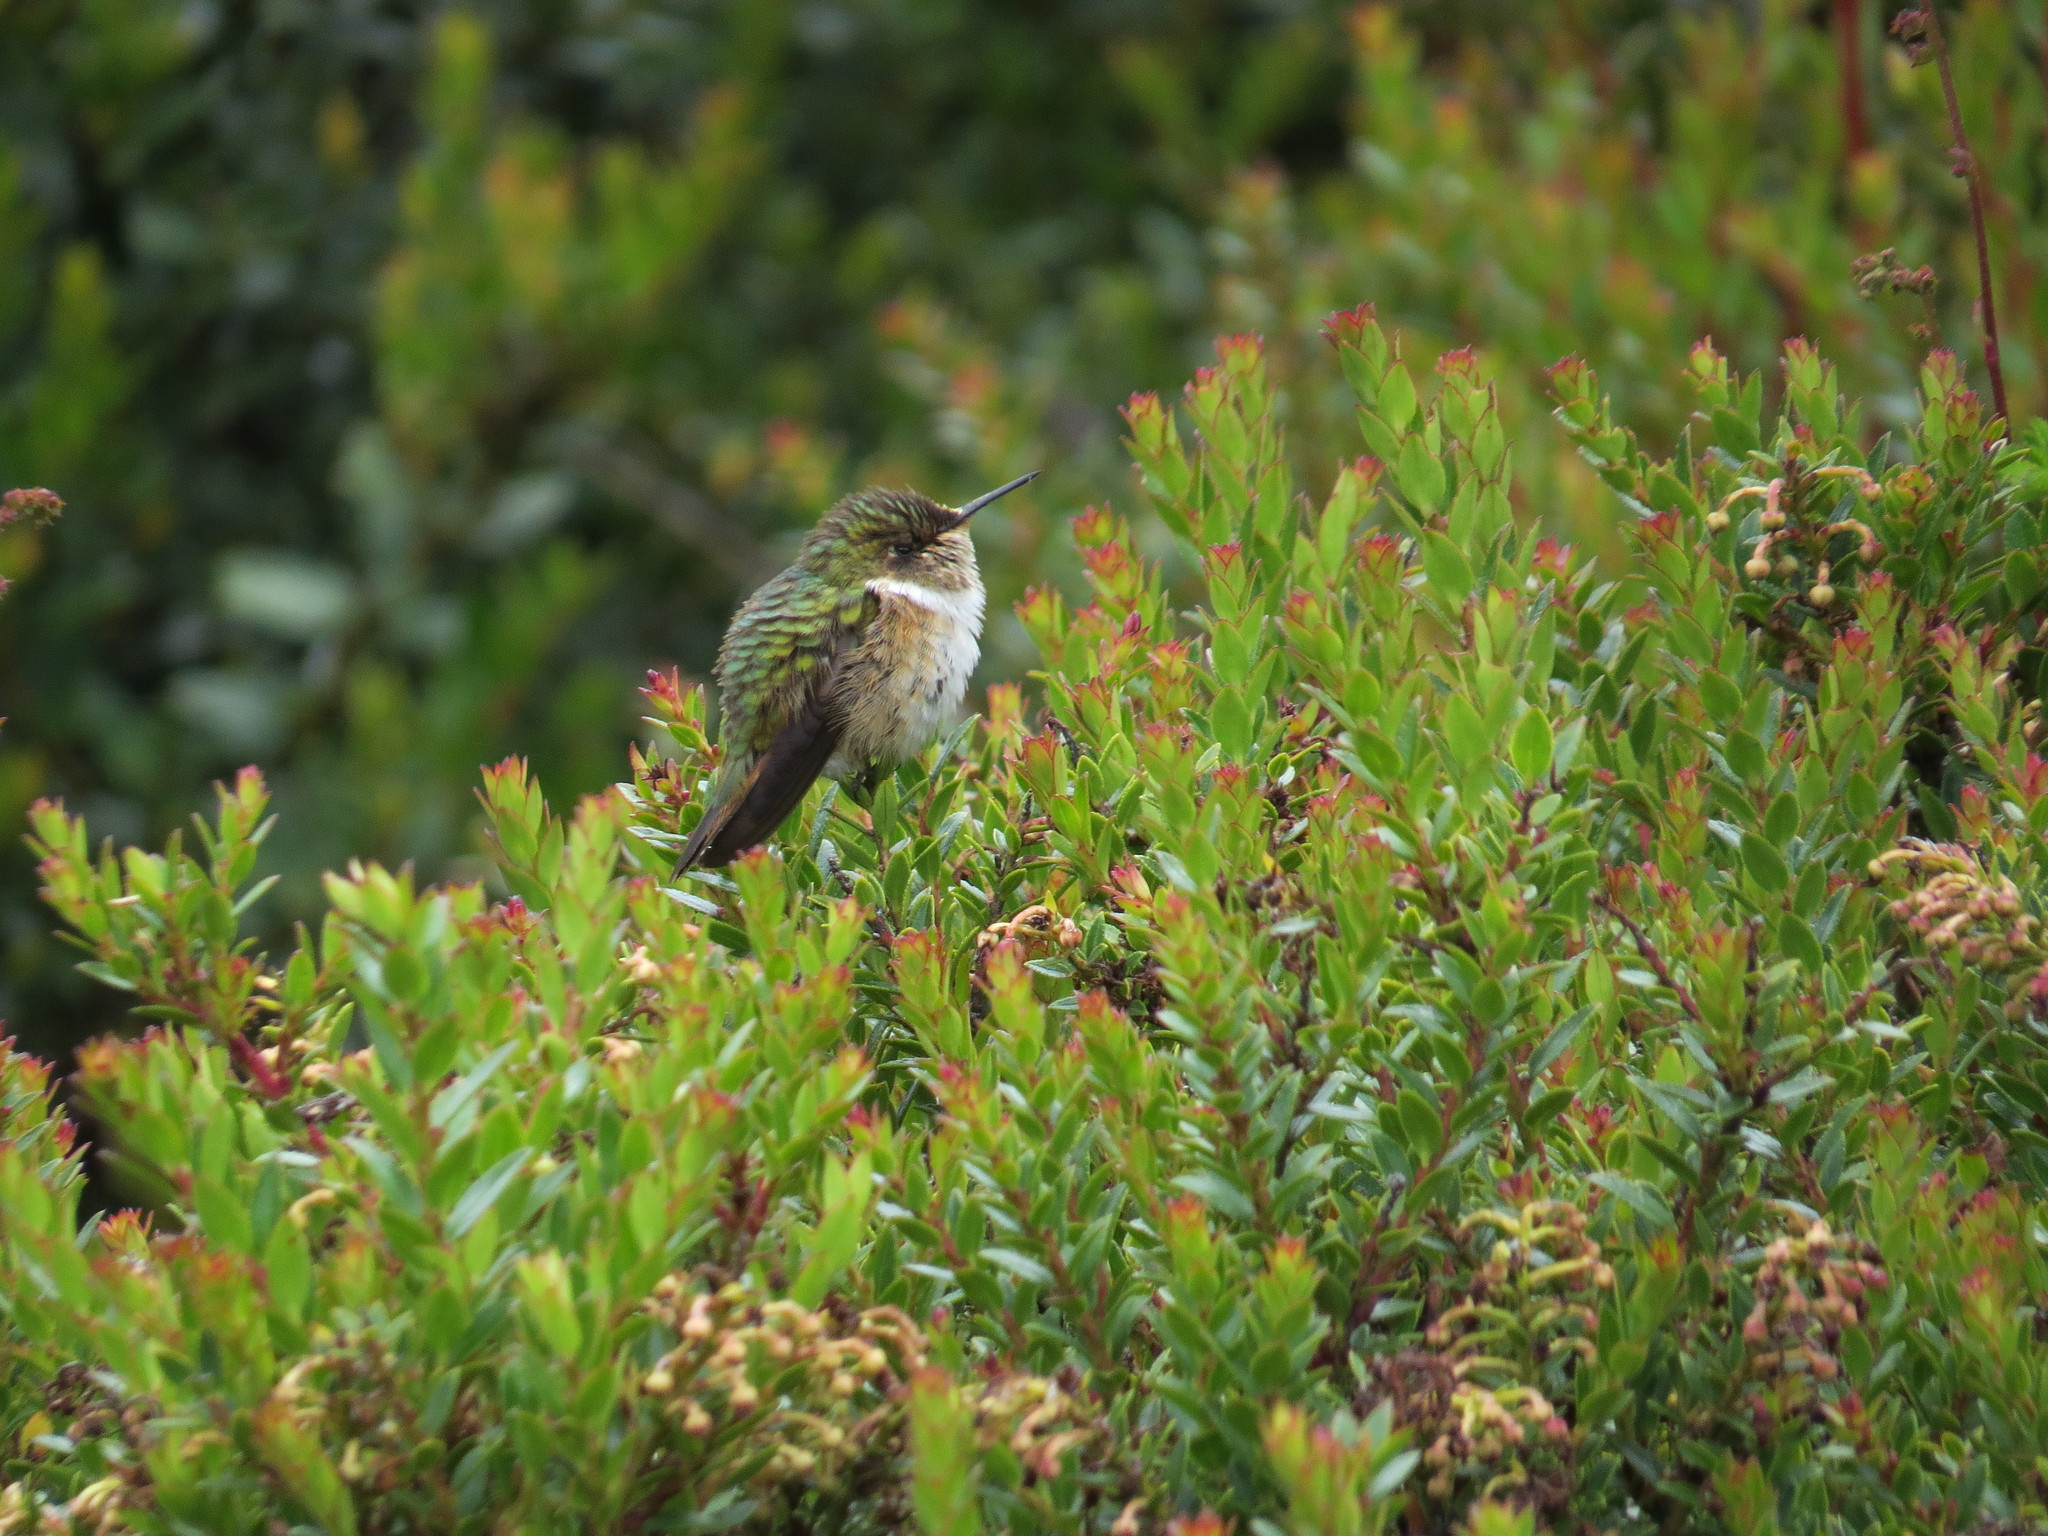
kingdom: Animalia
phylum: Chordata
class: Aves
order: Apodiformes
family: Trochilidae
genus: Selasphorus
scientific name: Selasphorus flammula
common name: Volcano hummingbird
